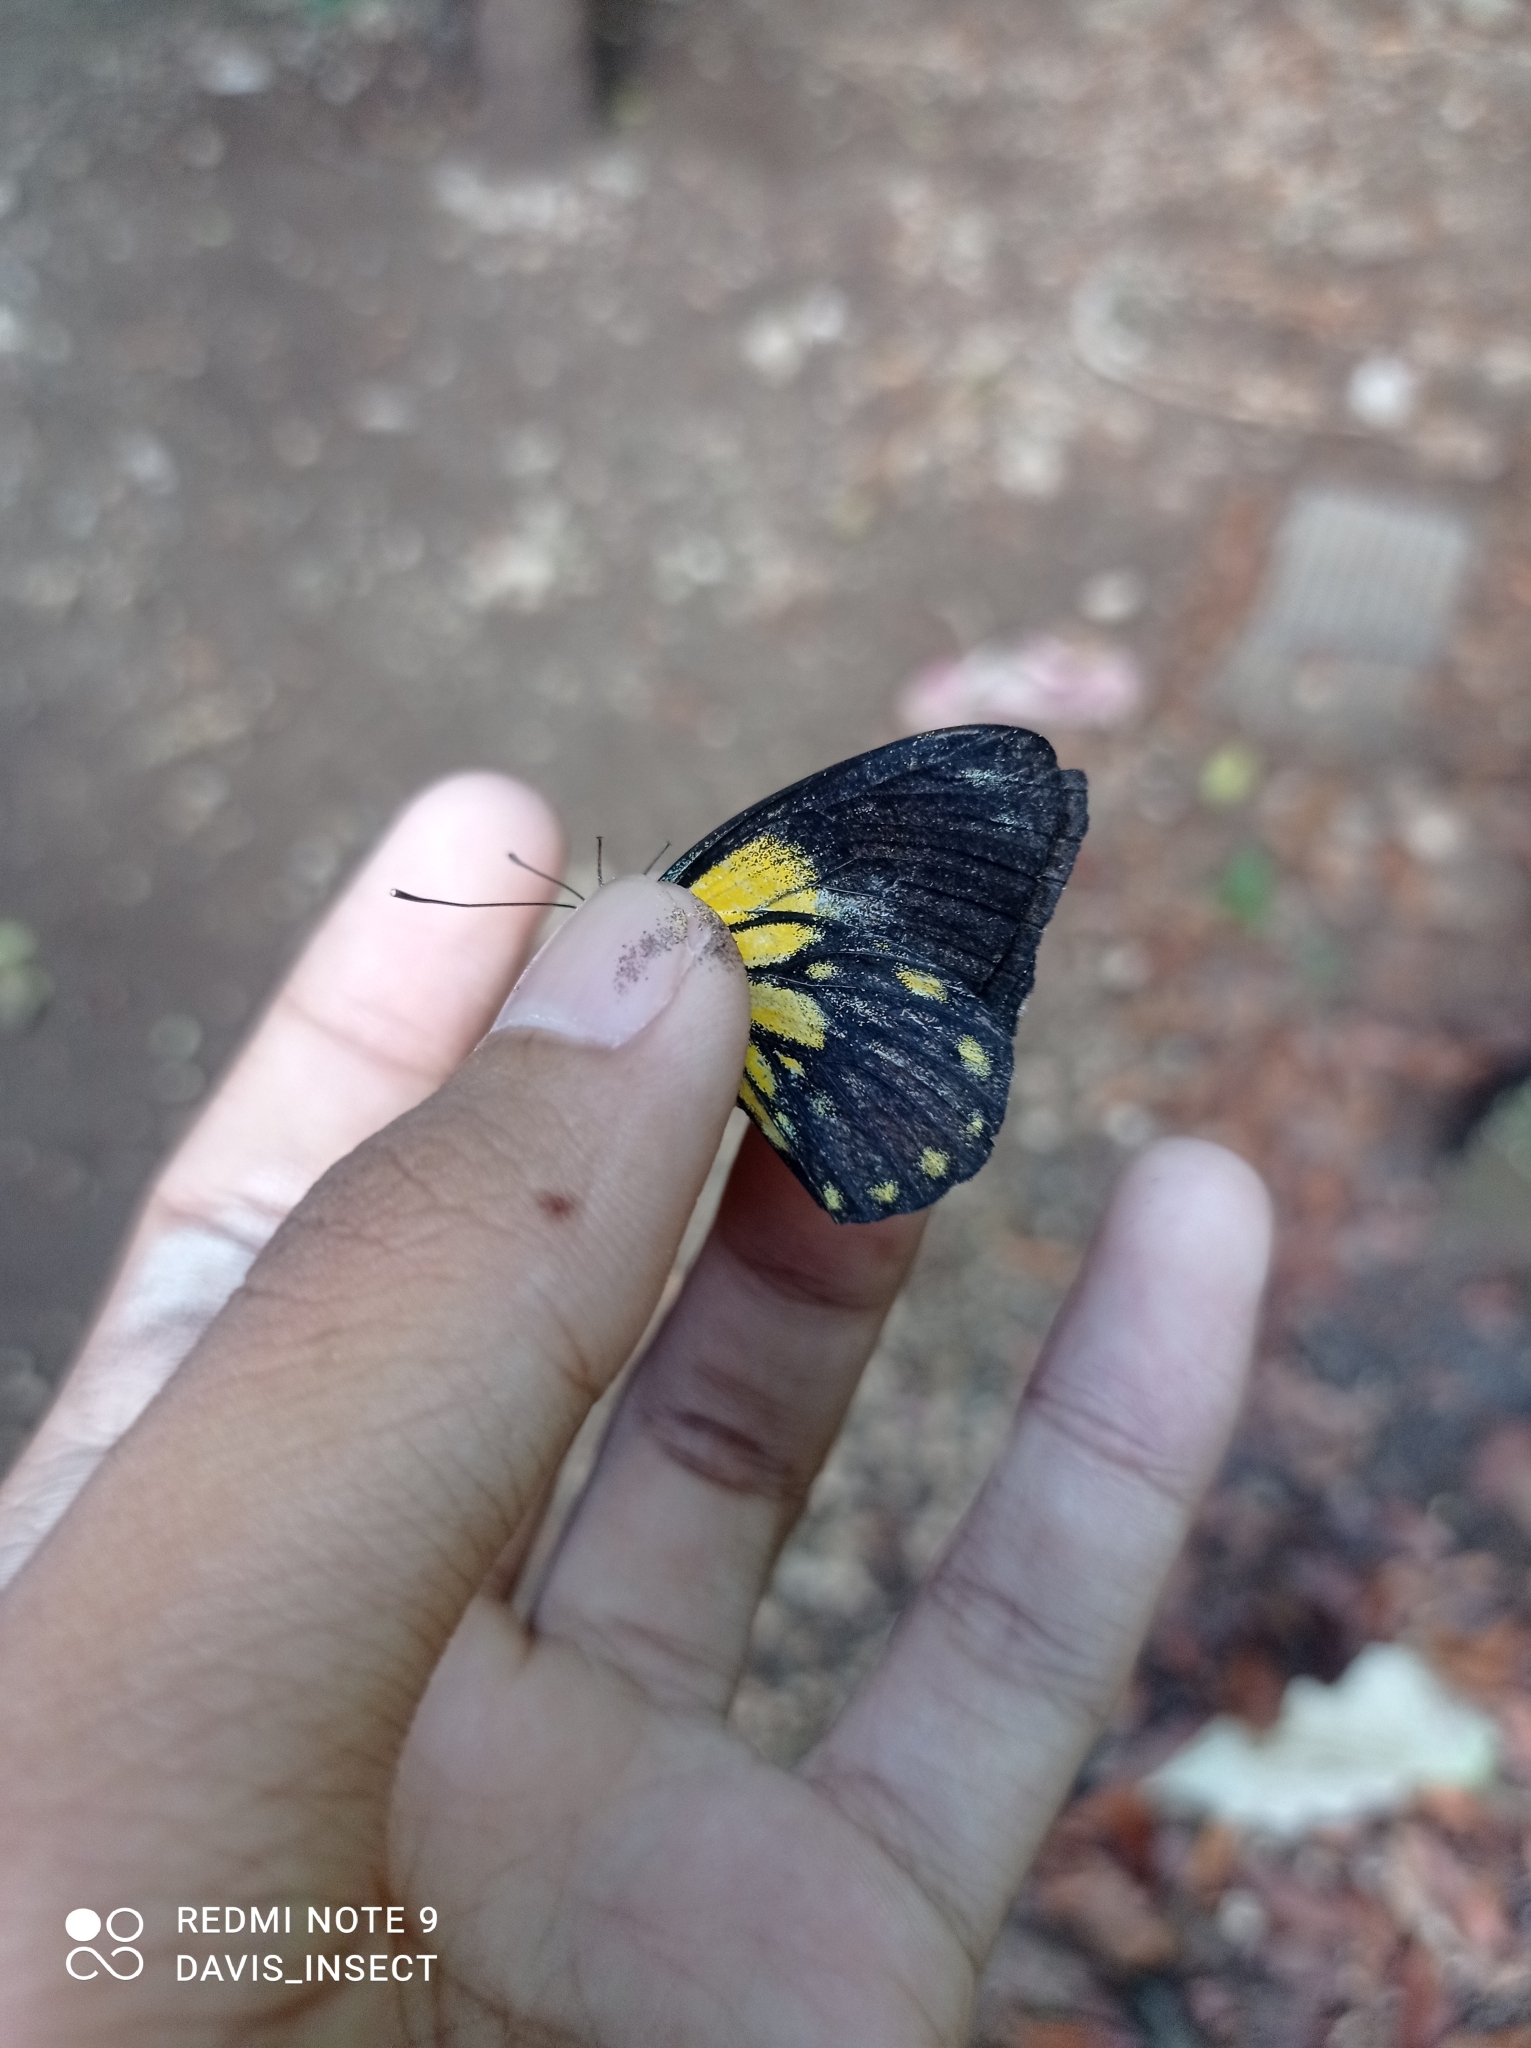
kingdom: Animalia
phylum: Arthropoda
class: Insecta
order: Lepidoptera
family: Pieridae
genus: Belenois
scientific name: Belenois java
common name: Caper white
